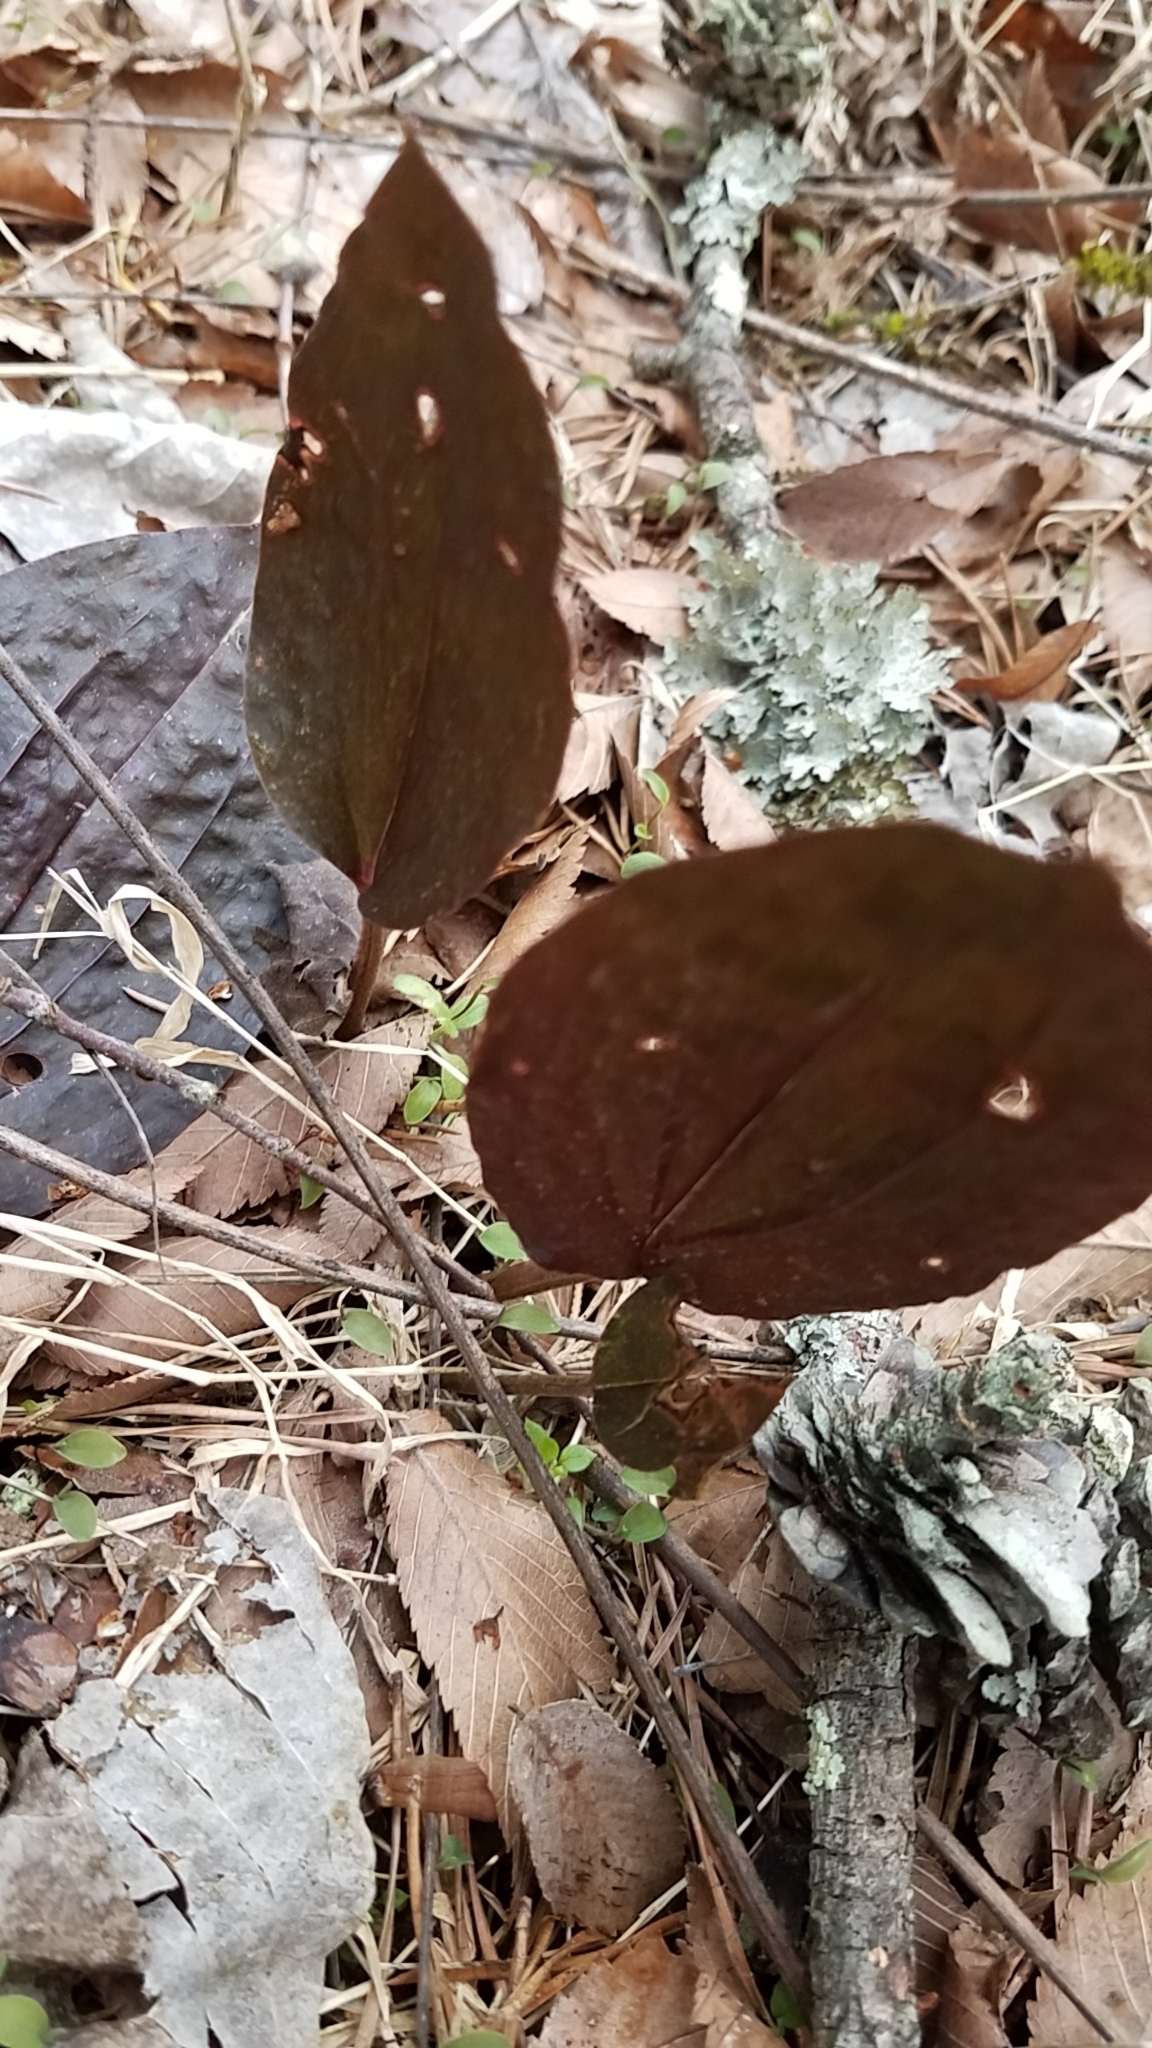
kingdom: Plantae
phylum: Tracheophyta
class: Liliopsida
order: Asparagales
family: Orchidaceae
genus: Tipularia
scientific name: Tipularia discolor
